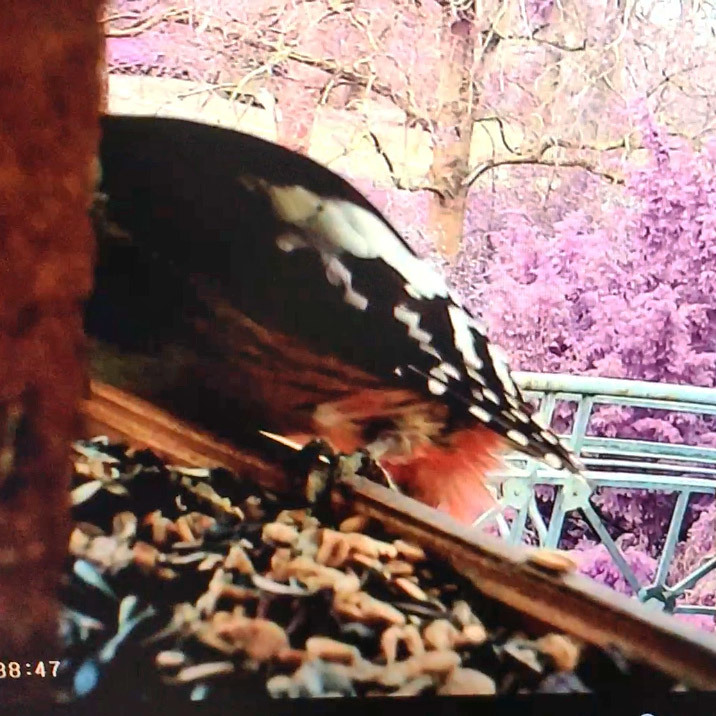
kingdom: Animalia
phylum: Chordata
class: Aves
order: Piciformes
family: Picidae
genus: Dendrocoptes
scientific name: Dendrocoptes medius
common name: Middle spotted woodpecker
